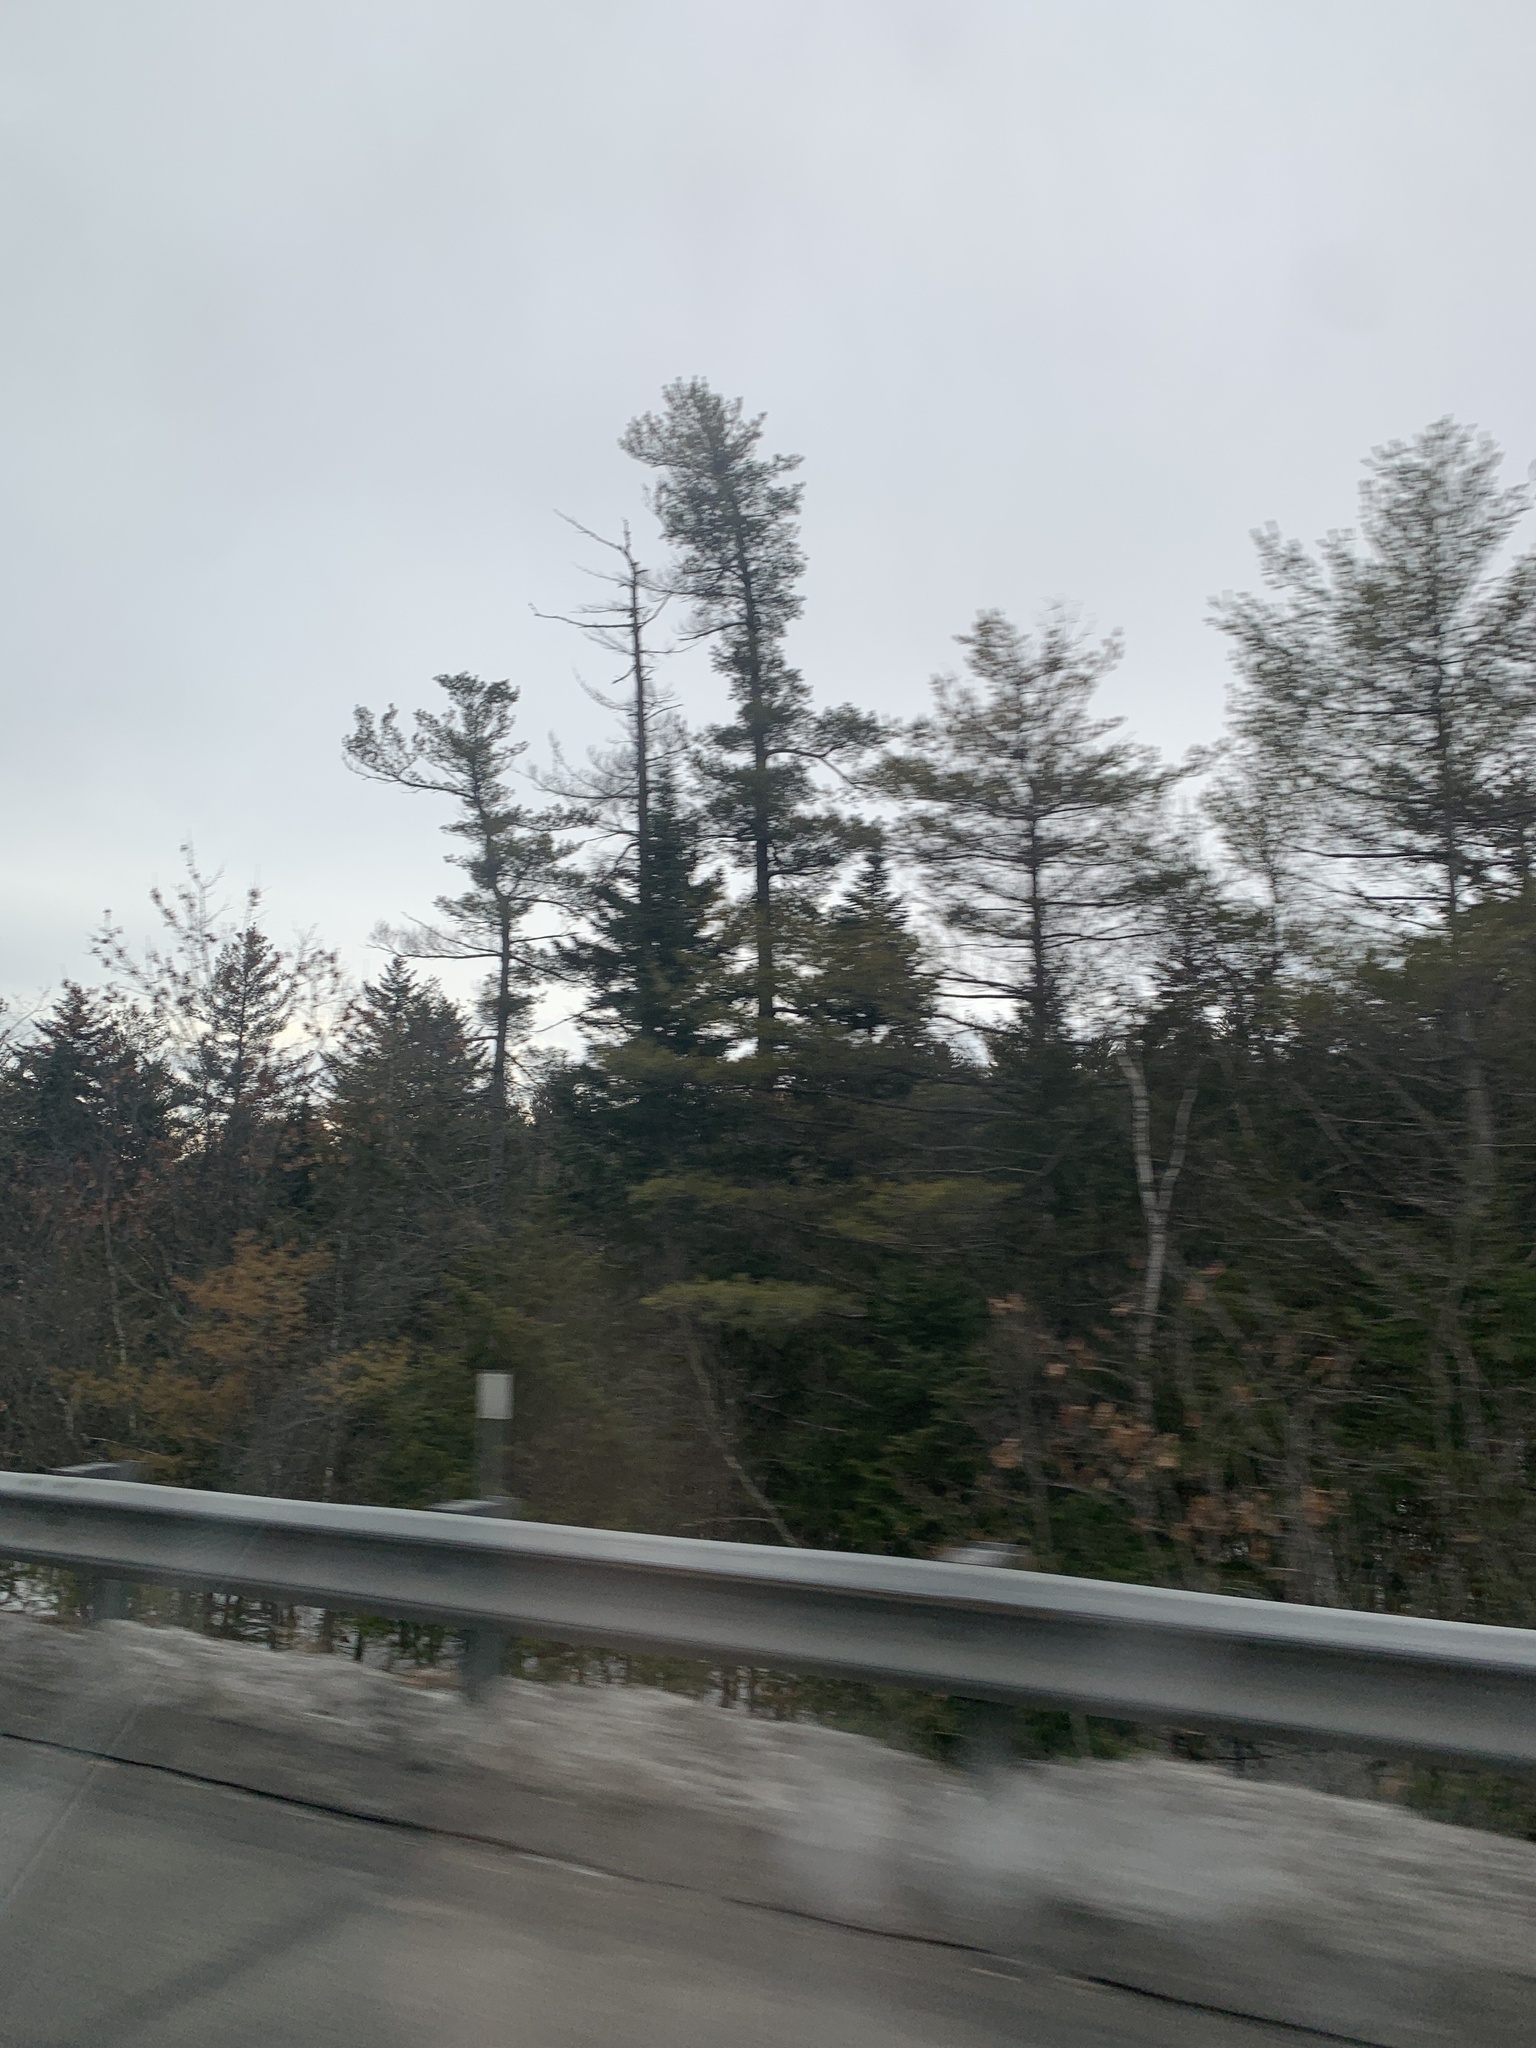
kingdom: Plantae
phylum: Tracheophyta
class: Pinopsida
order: Pinales
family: Pinaceae
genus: Pinus
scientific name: Pinus strobus
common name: Weymouth pine
